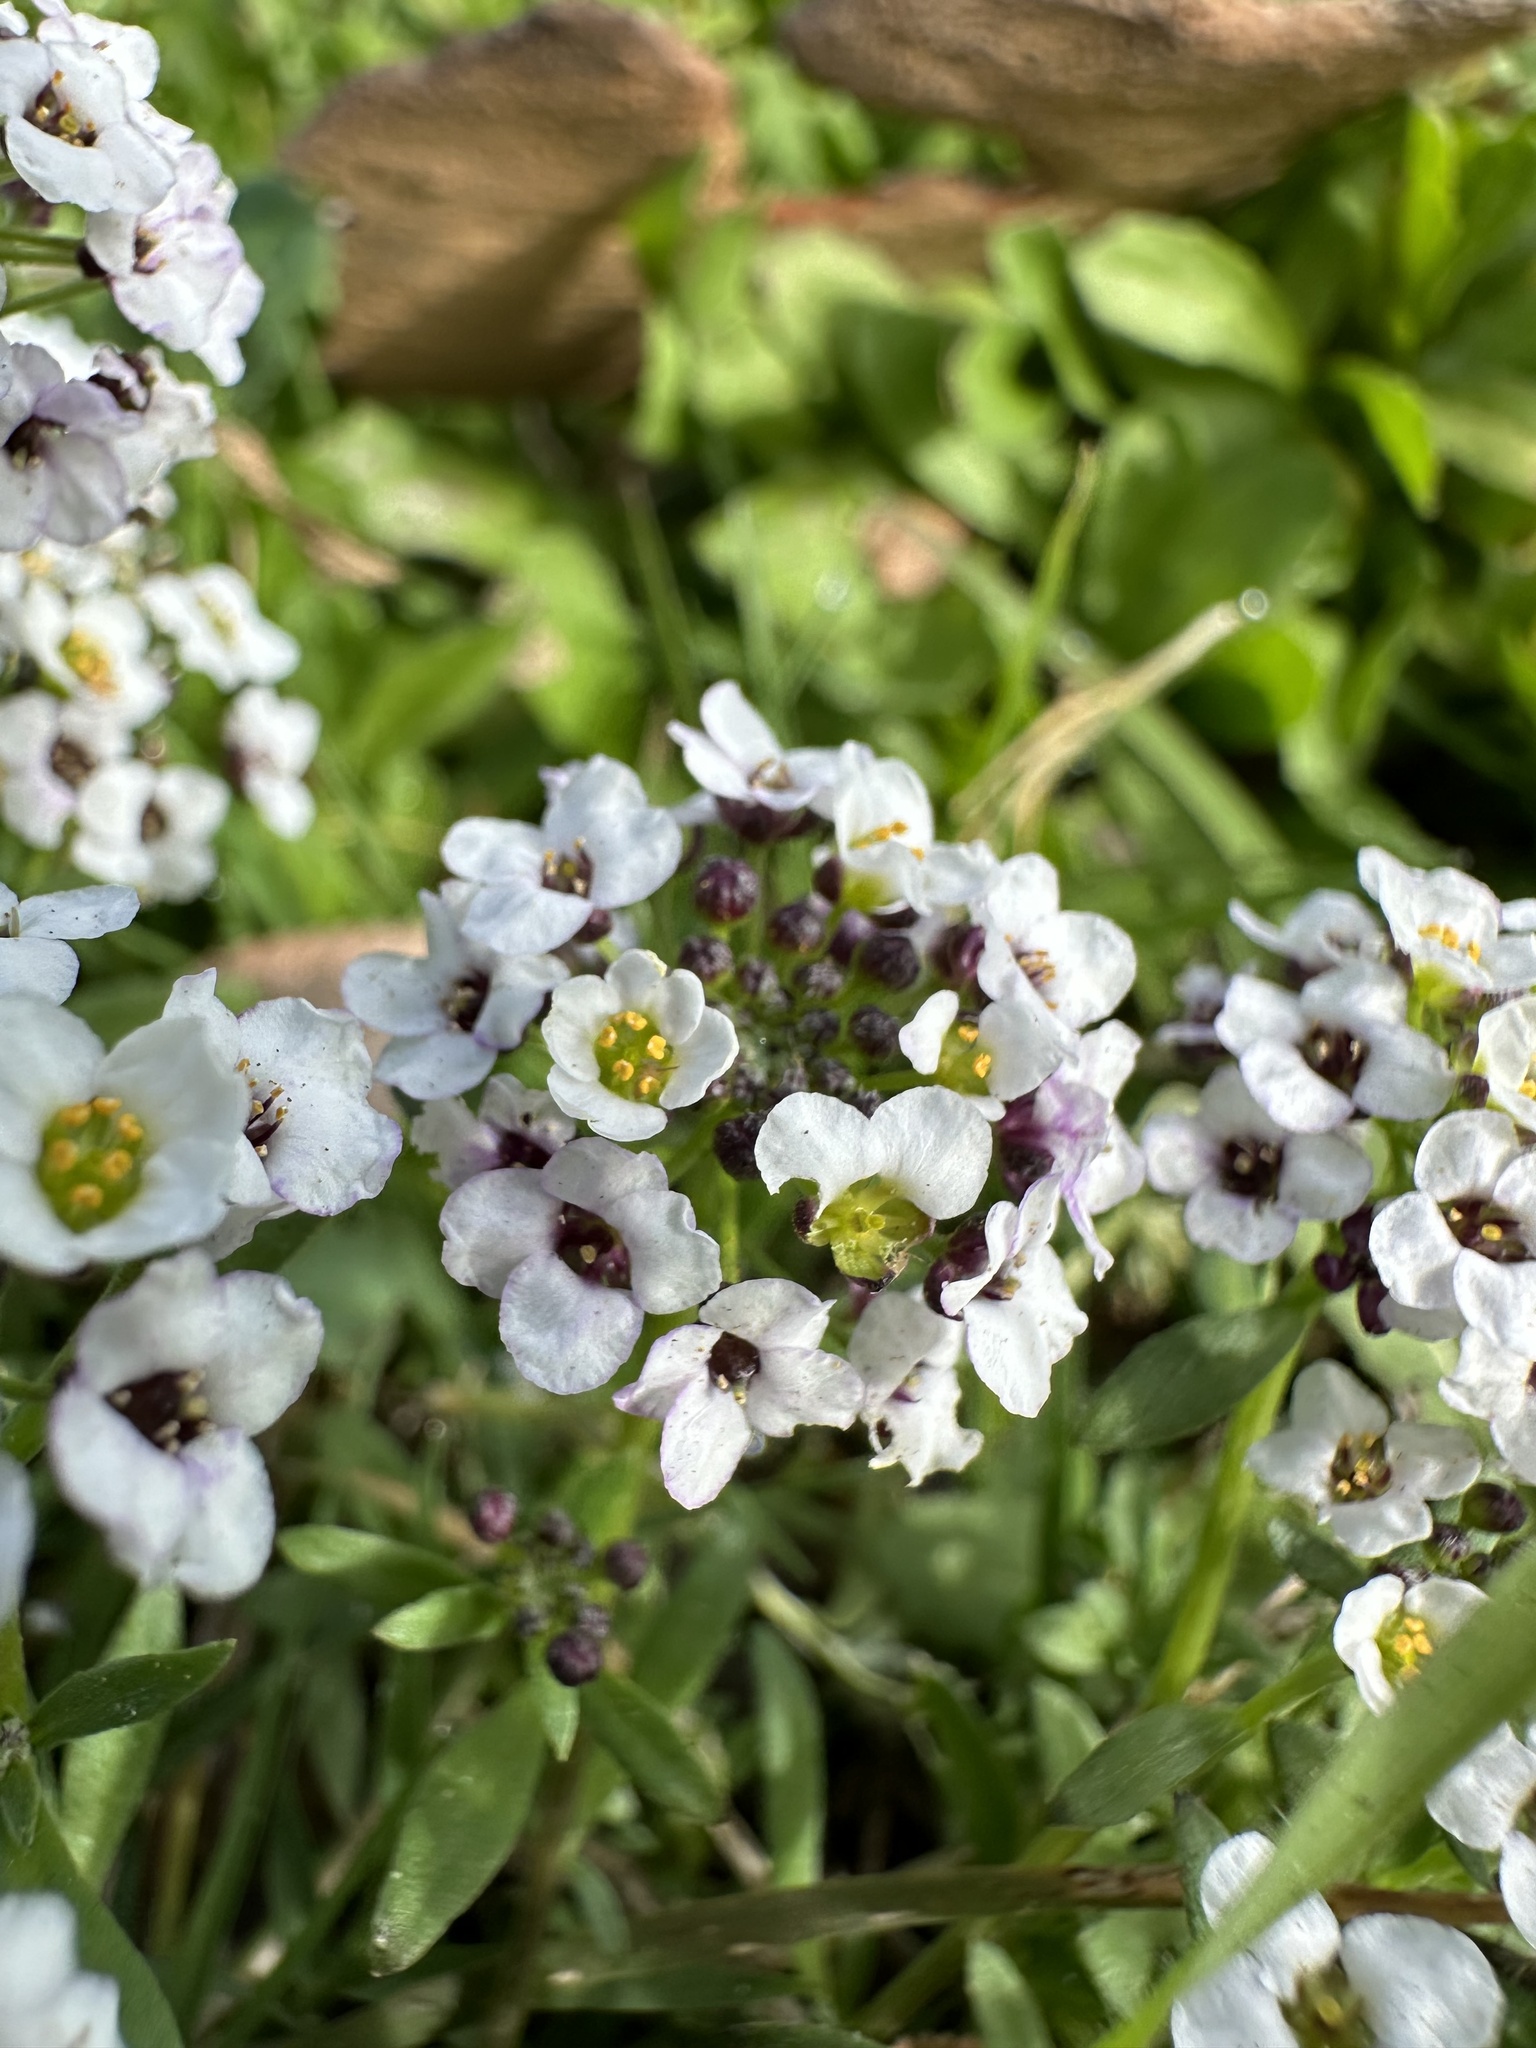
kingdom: Plantae
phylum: Tracheophyta
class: Magnoliopsida
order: Brassicales
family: Brassicaceae
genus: Lobularia
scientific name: Lobularia maritima
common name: Sweet alison
